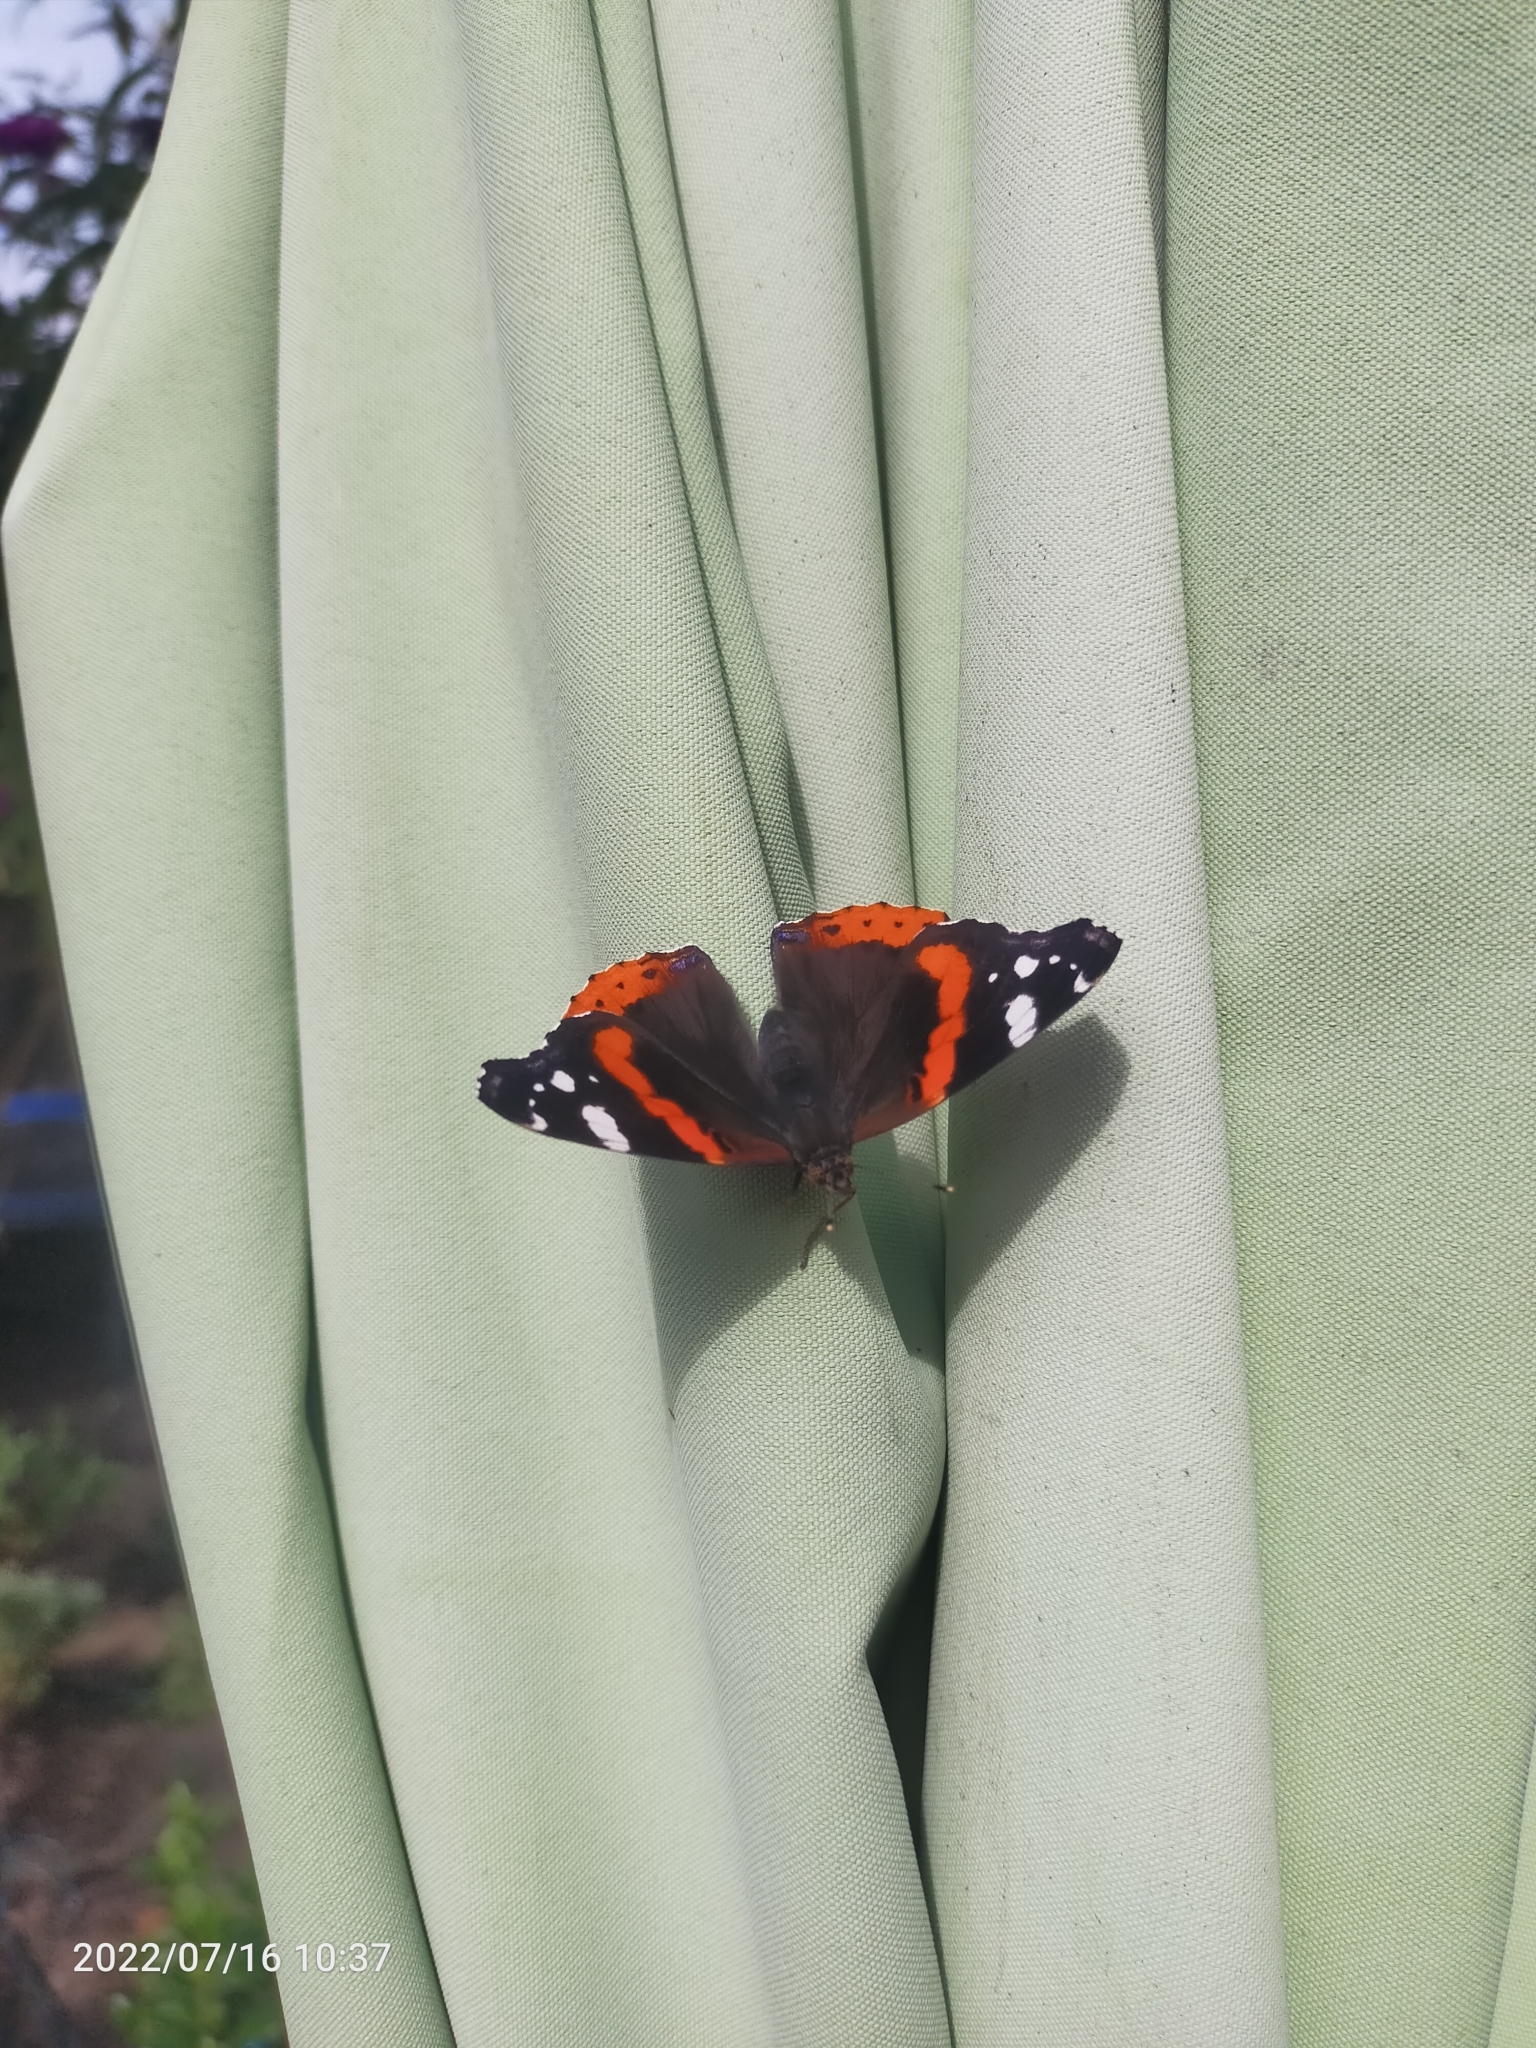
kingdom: Animalia
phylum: Arthropoda
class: Insecta
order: Lepidoptera
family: Nymphalidae
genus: Vanessa
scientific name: Vanessa atalanta
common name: Red admiral
